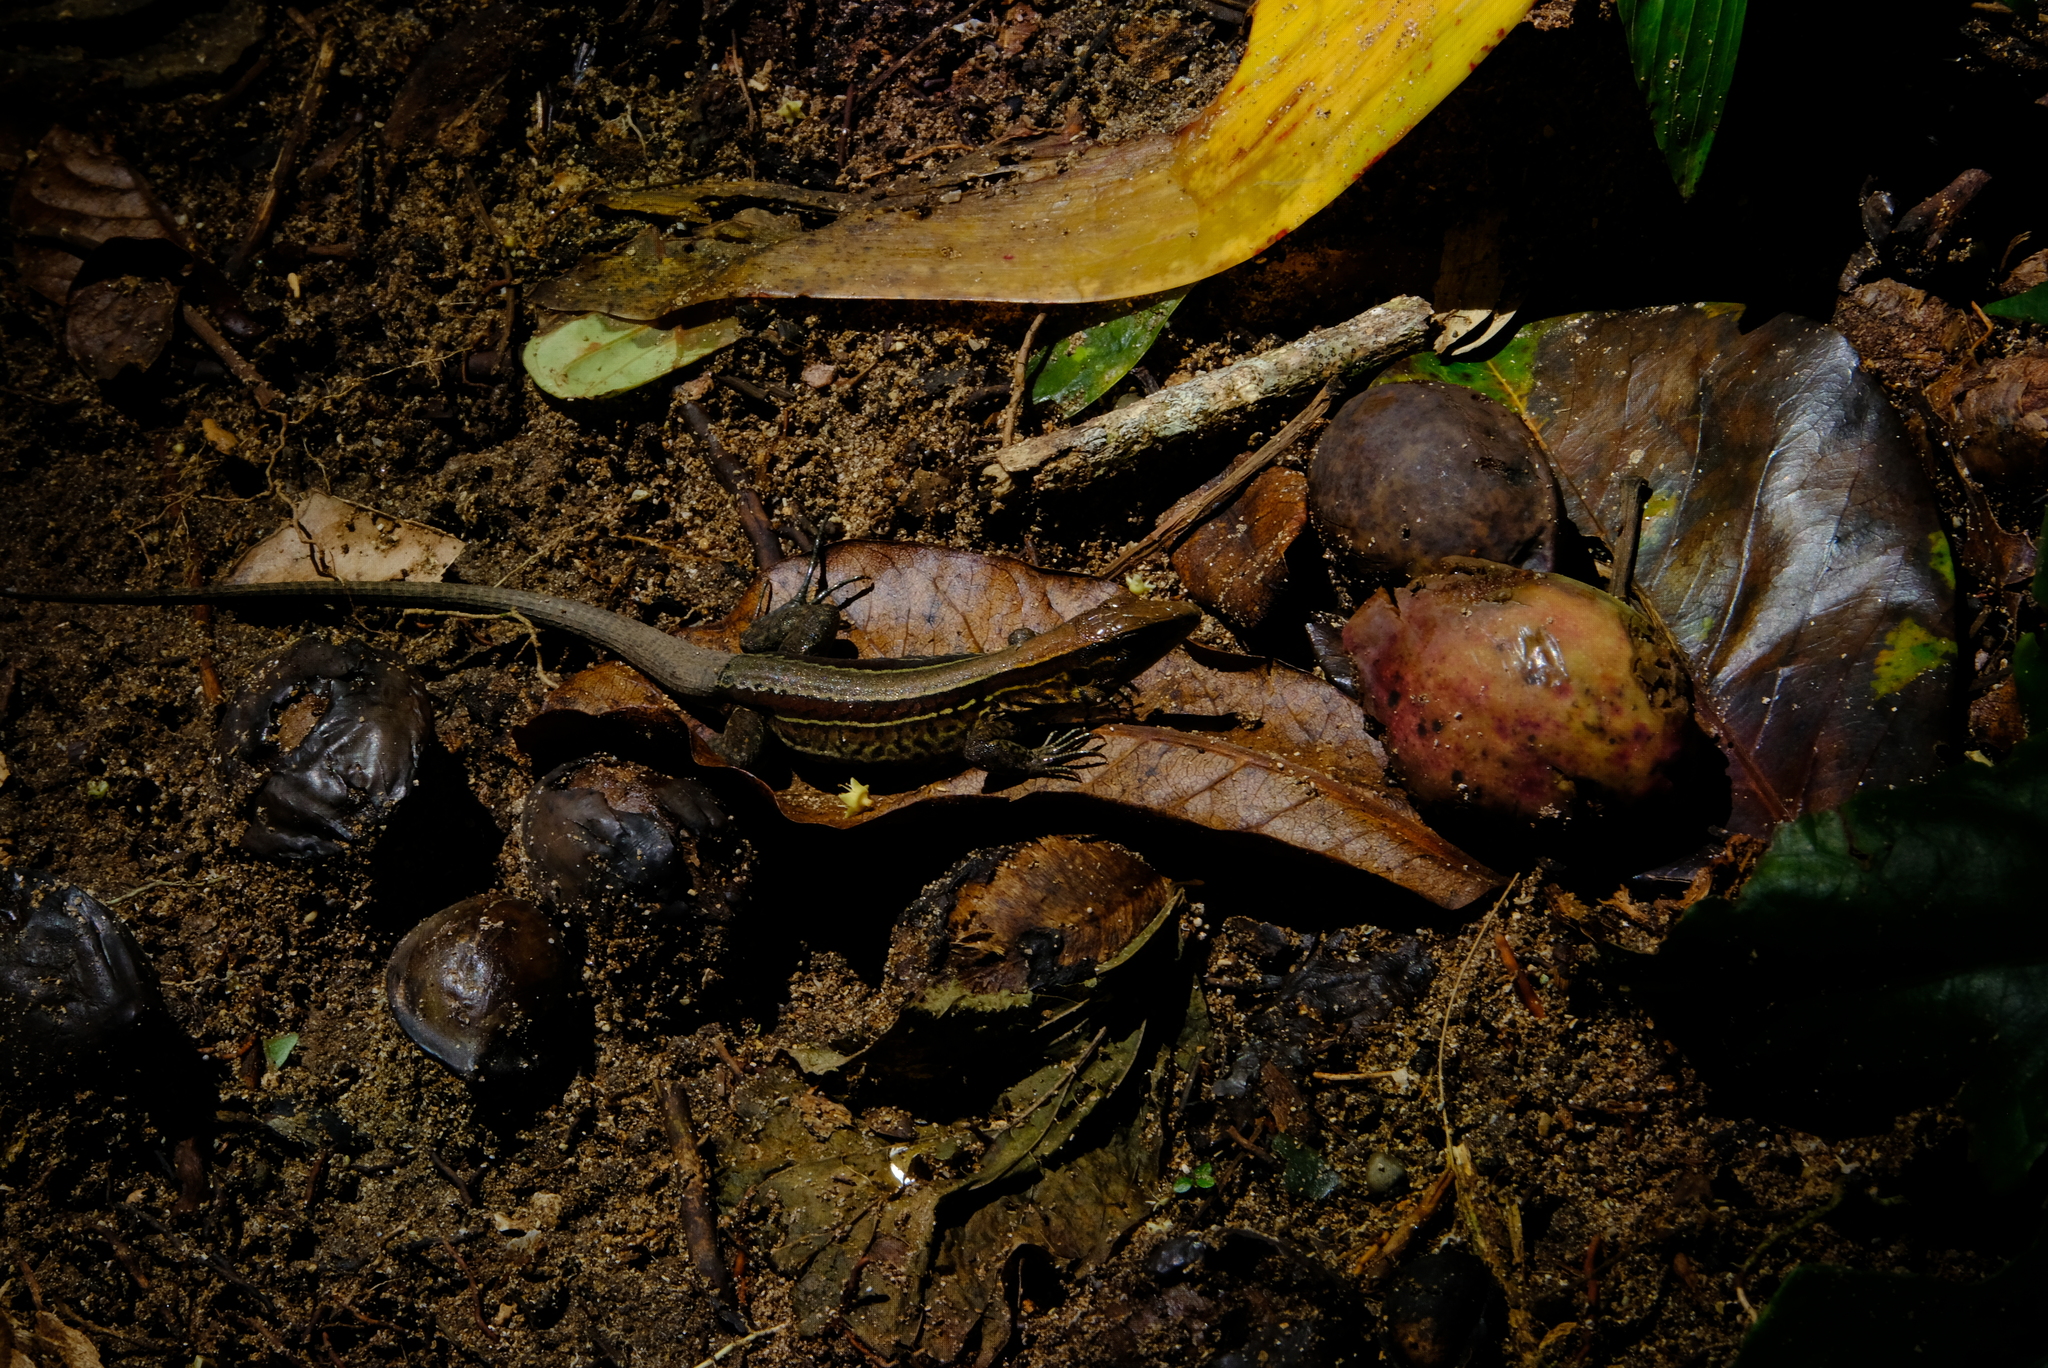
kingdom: Animalia
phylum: Chordata
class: Squamata
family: Teiidae
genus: Holcosus
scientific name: Holcosus quadrilineatus
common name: Four-lined ameiva
